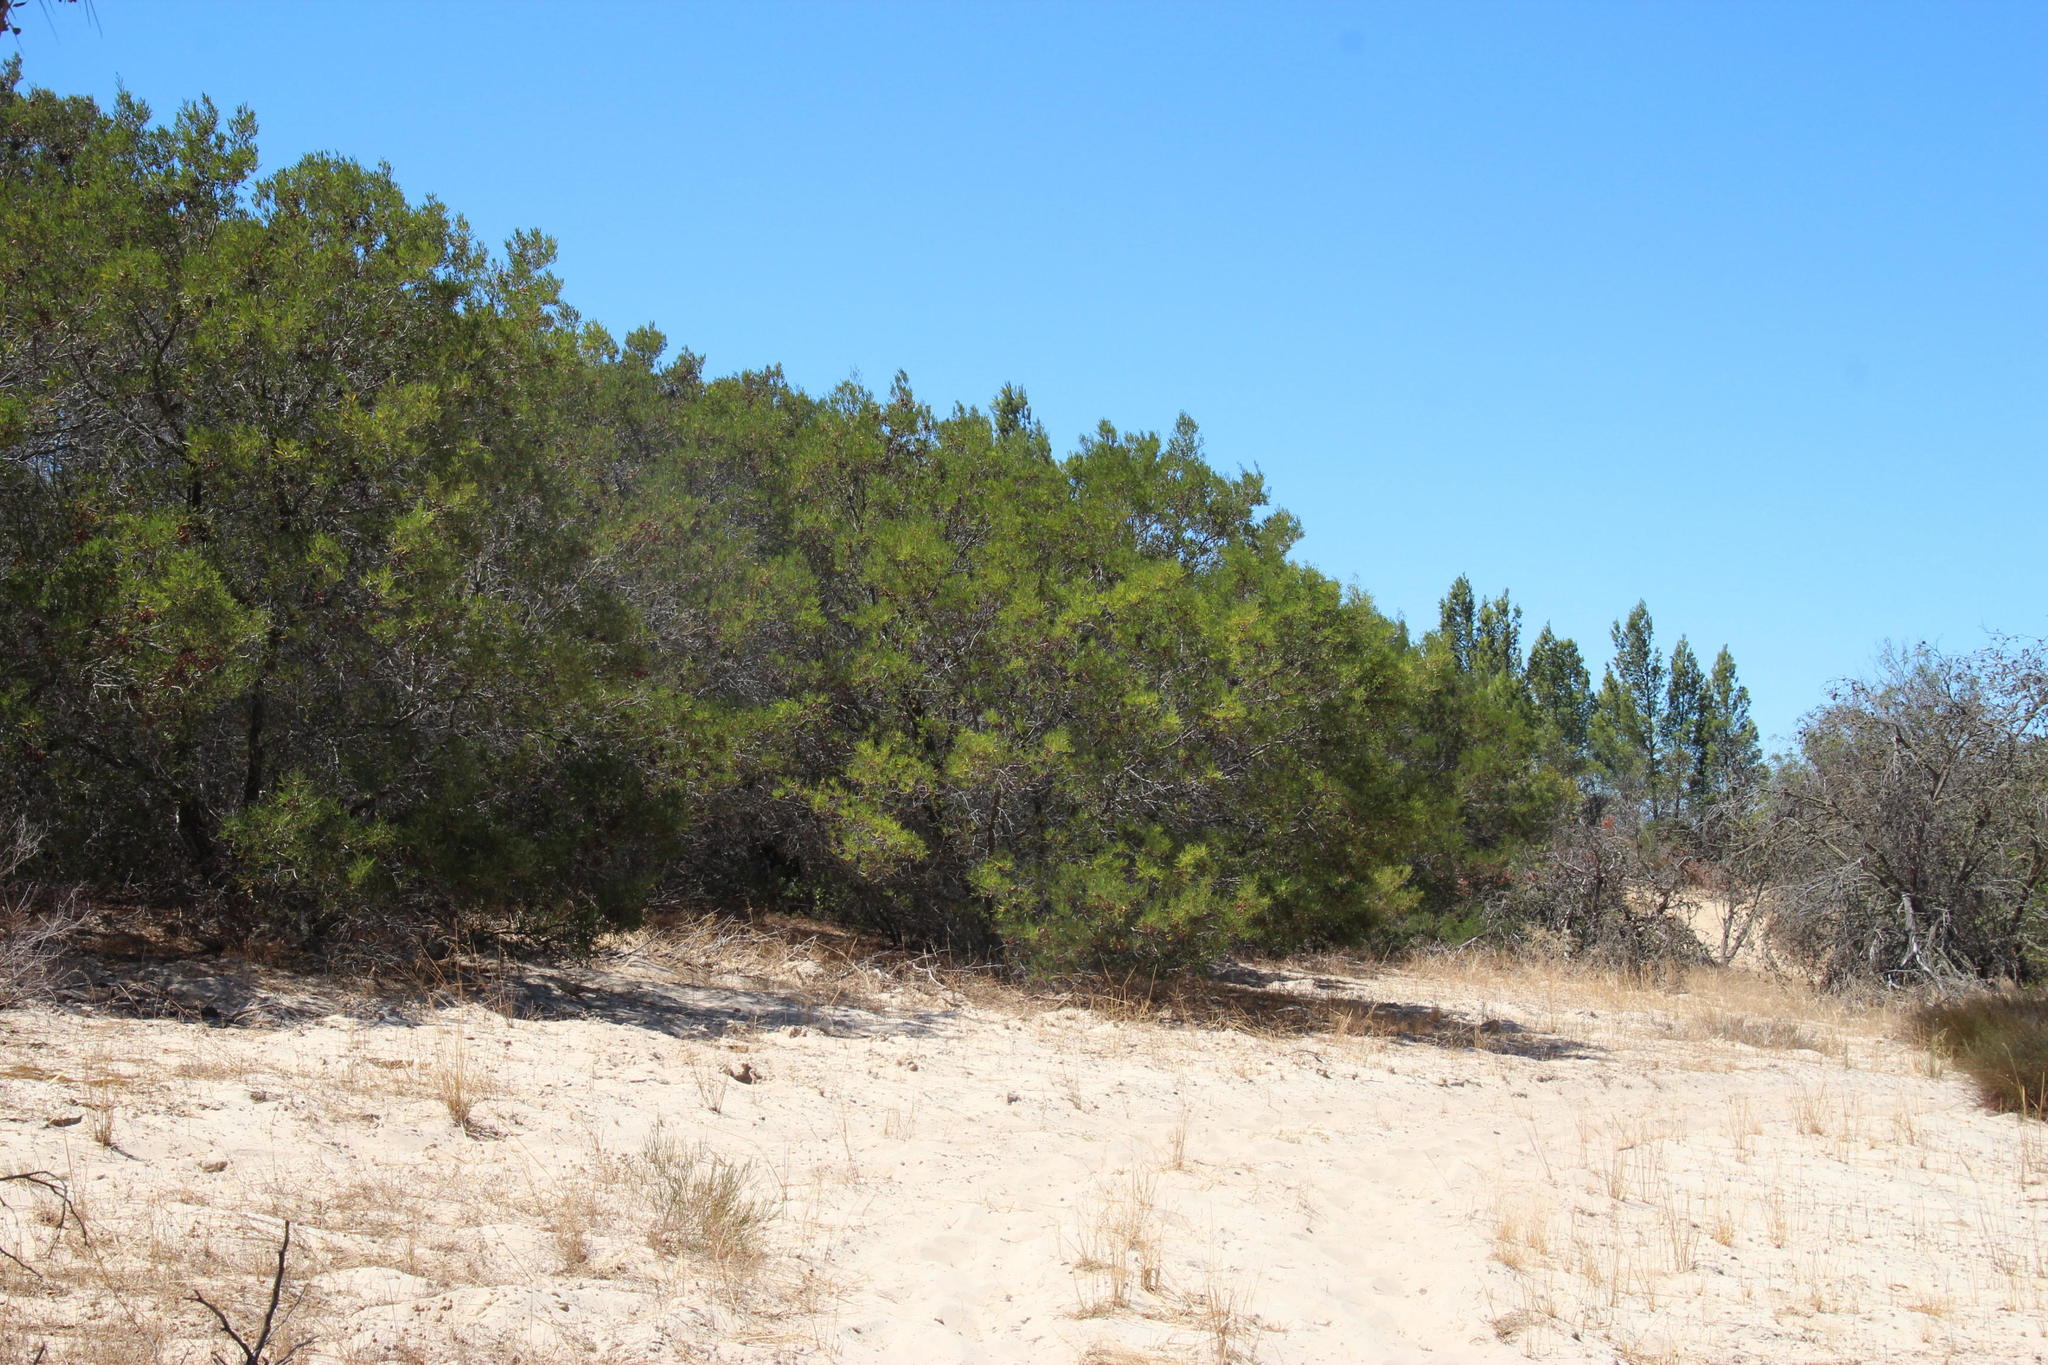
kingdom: Plantae
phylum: Tracheophyta
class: Magnoliopsida
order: Fabales
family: Fabaceae
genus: Acacia
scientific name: Acacia cyclops
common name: Coastal wattle
